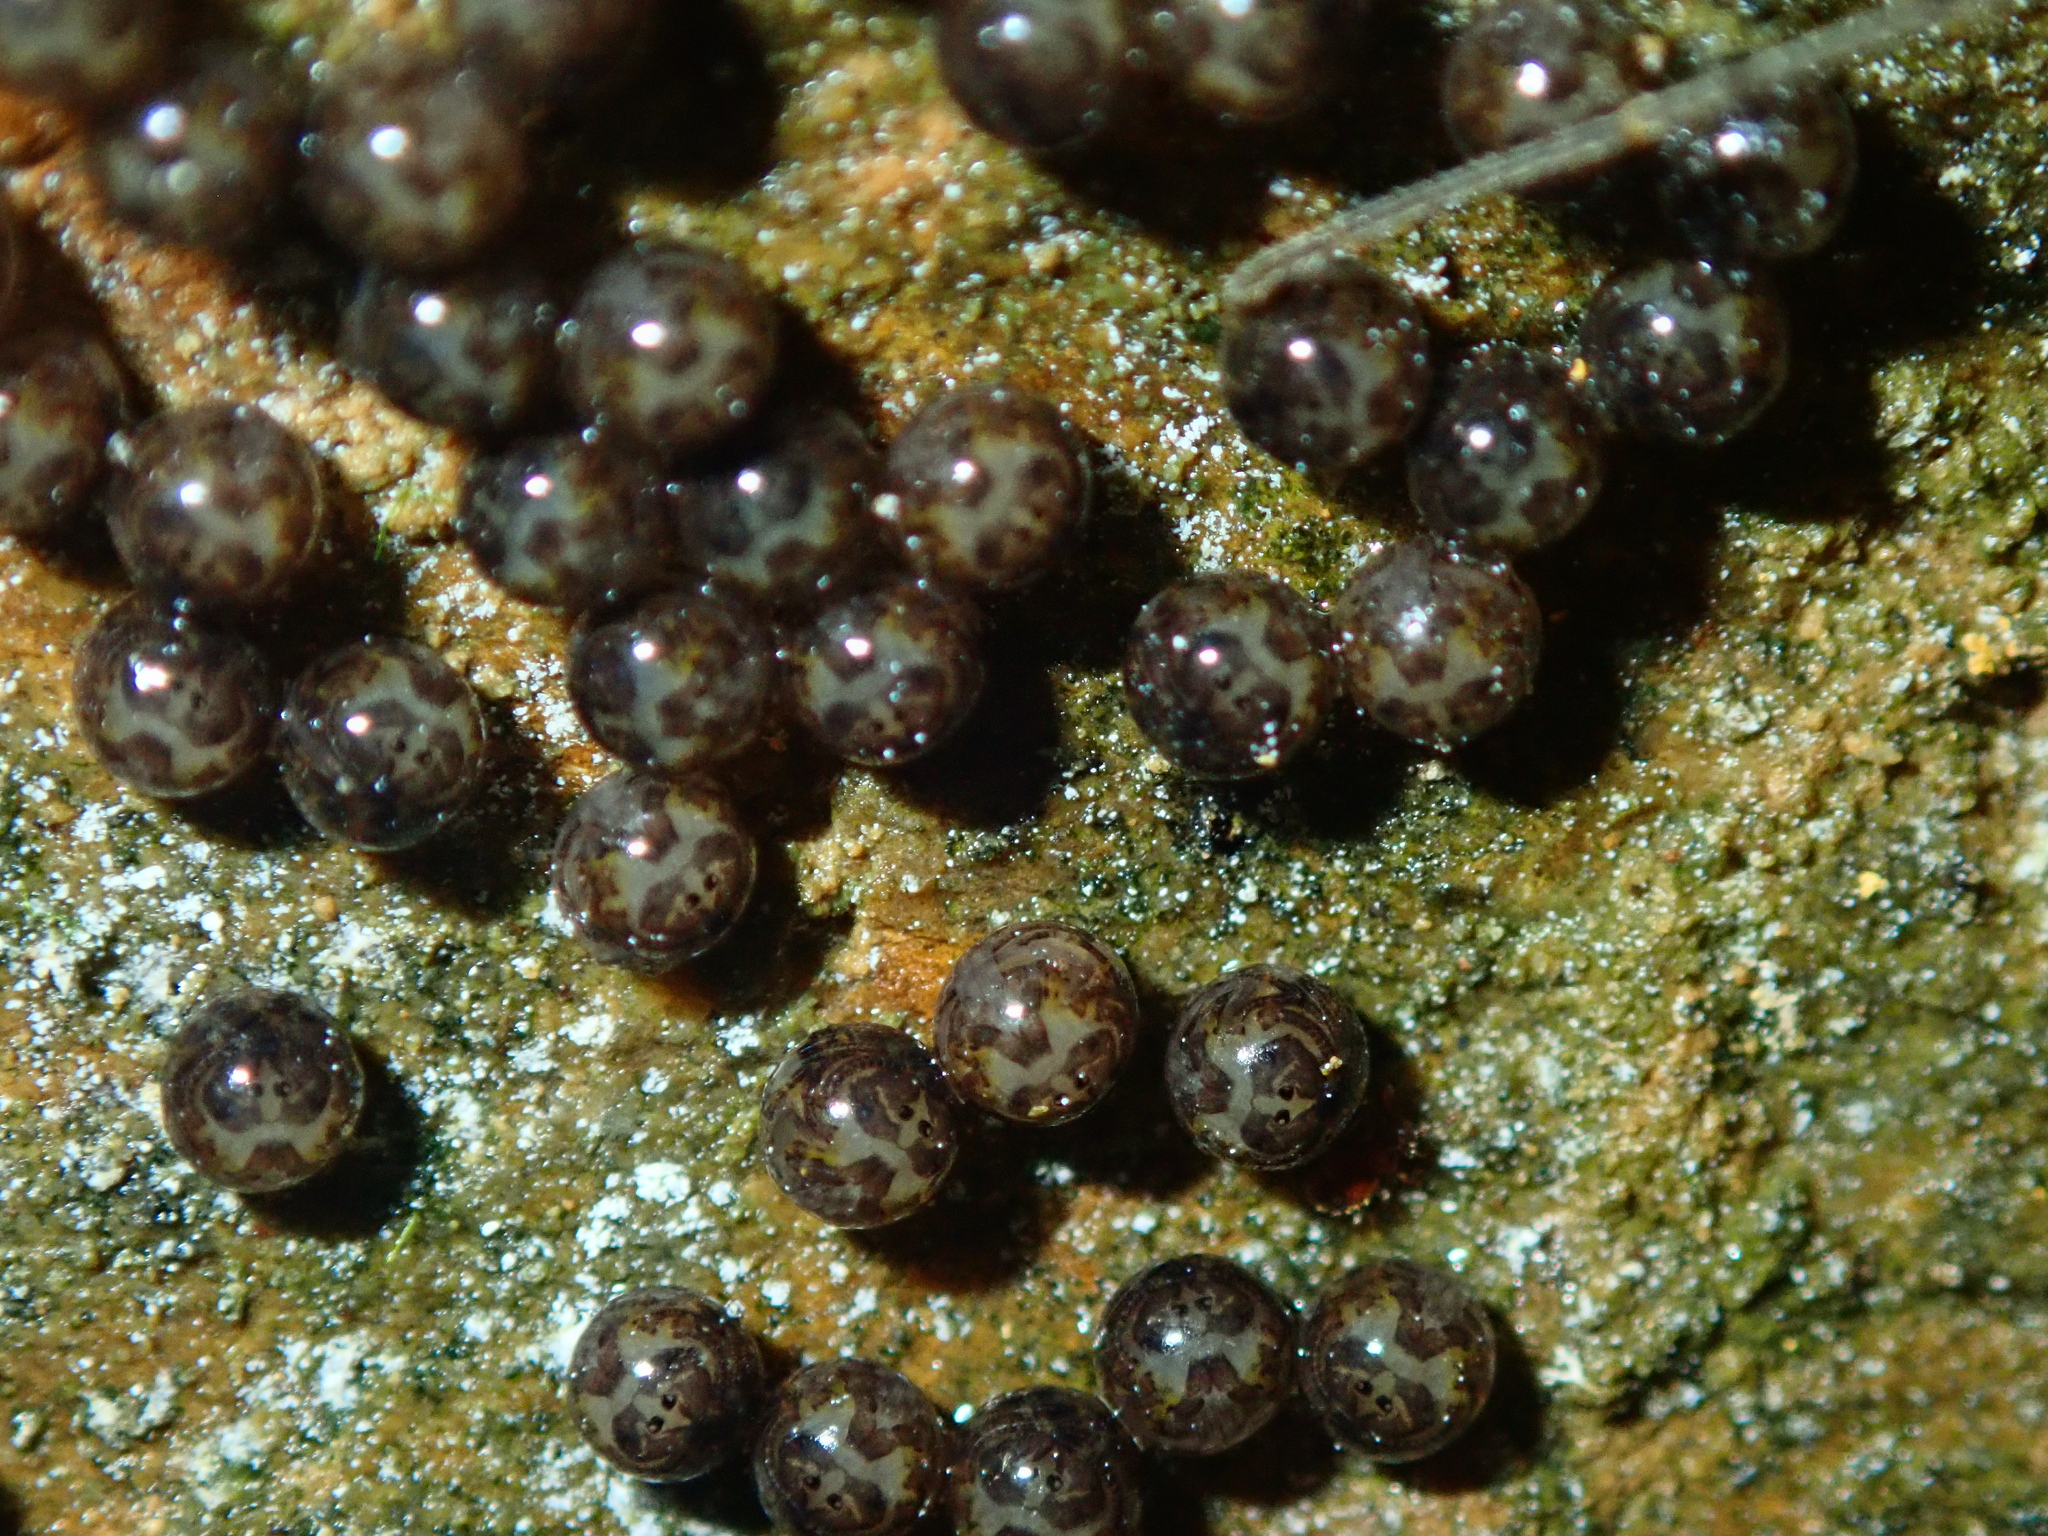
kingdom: Animalia
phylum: Arthropoda
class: Arachnida
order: Opiliones
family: Gonyleptidae
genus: Serracutisoma
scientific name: Serracutisoma inerme
